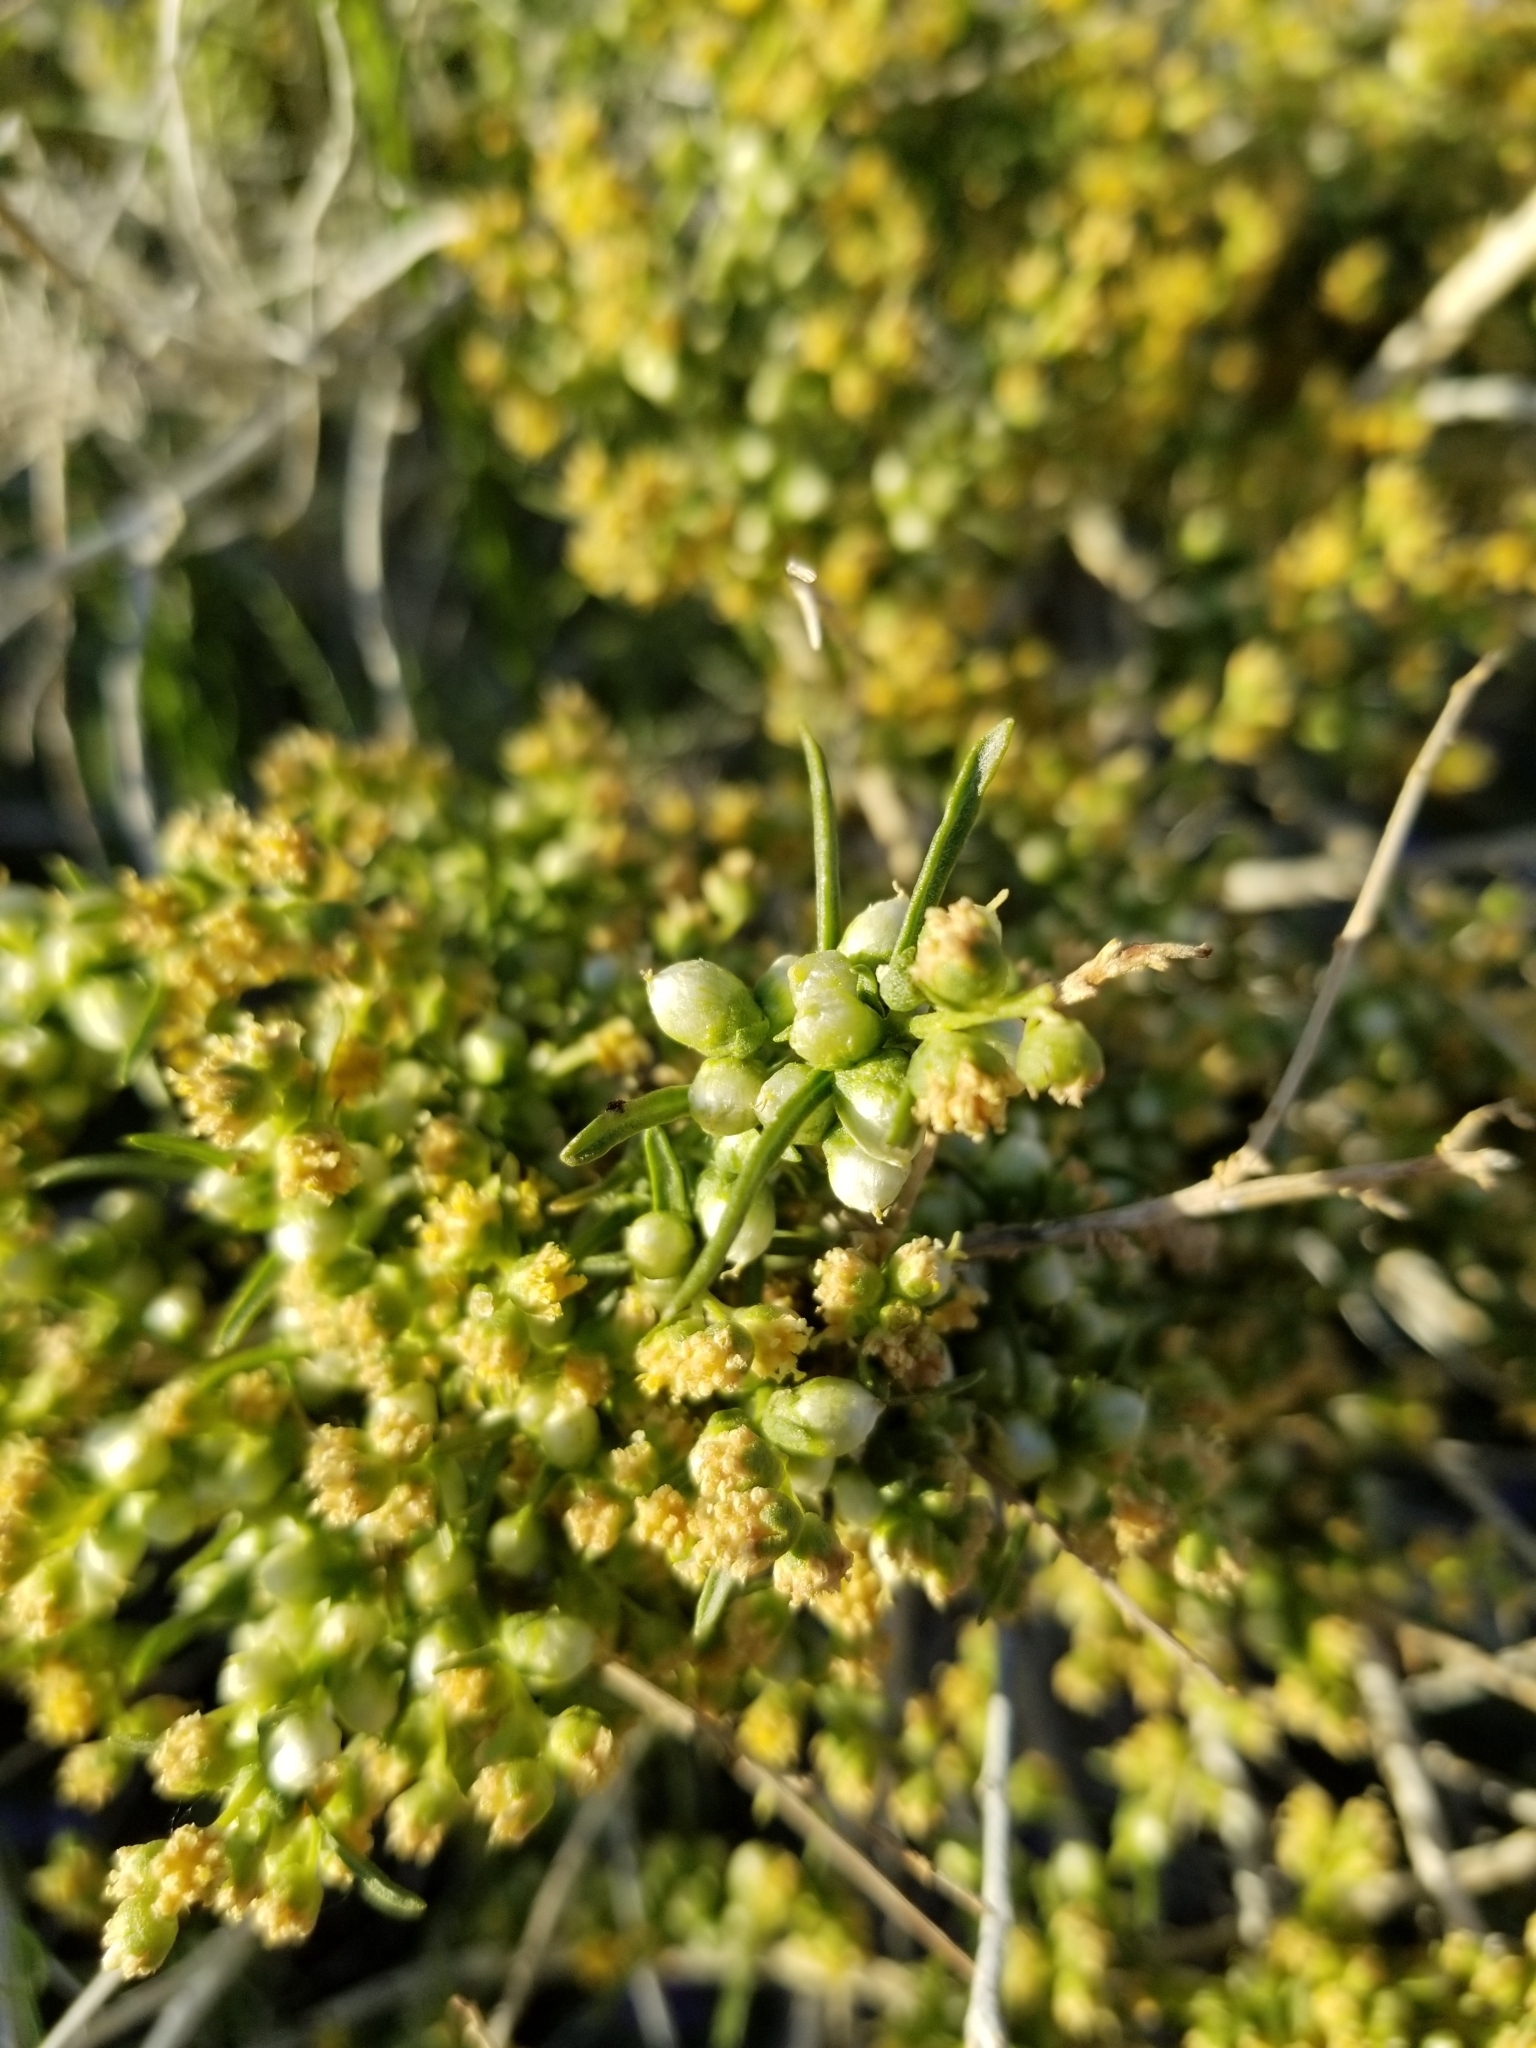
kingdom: Plantae
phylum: Tracheophyta
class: Magnoliopsida
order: Asterales
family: Asteraceae
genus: Ambrosia
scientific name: Ambrosia salsola
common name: Burrobrush
